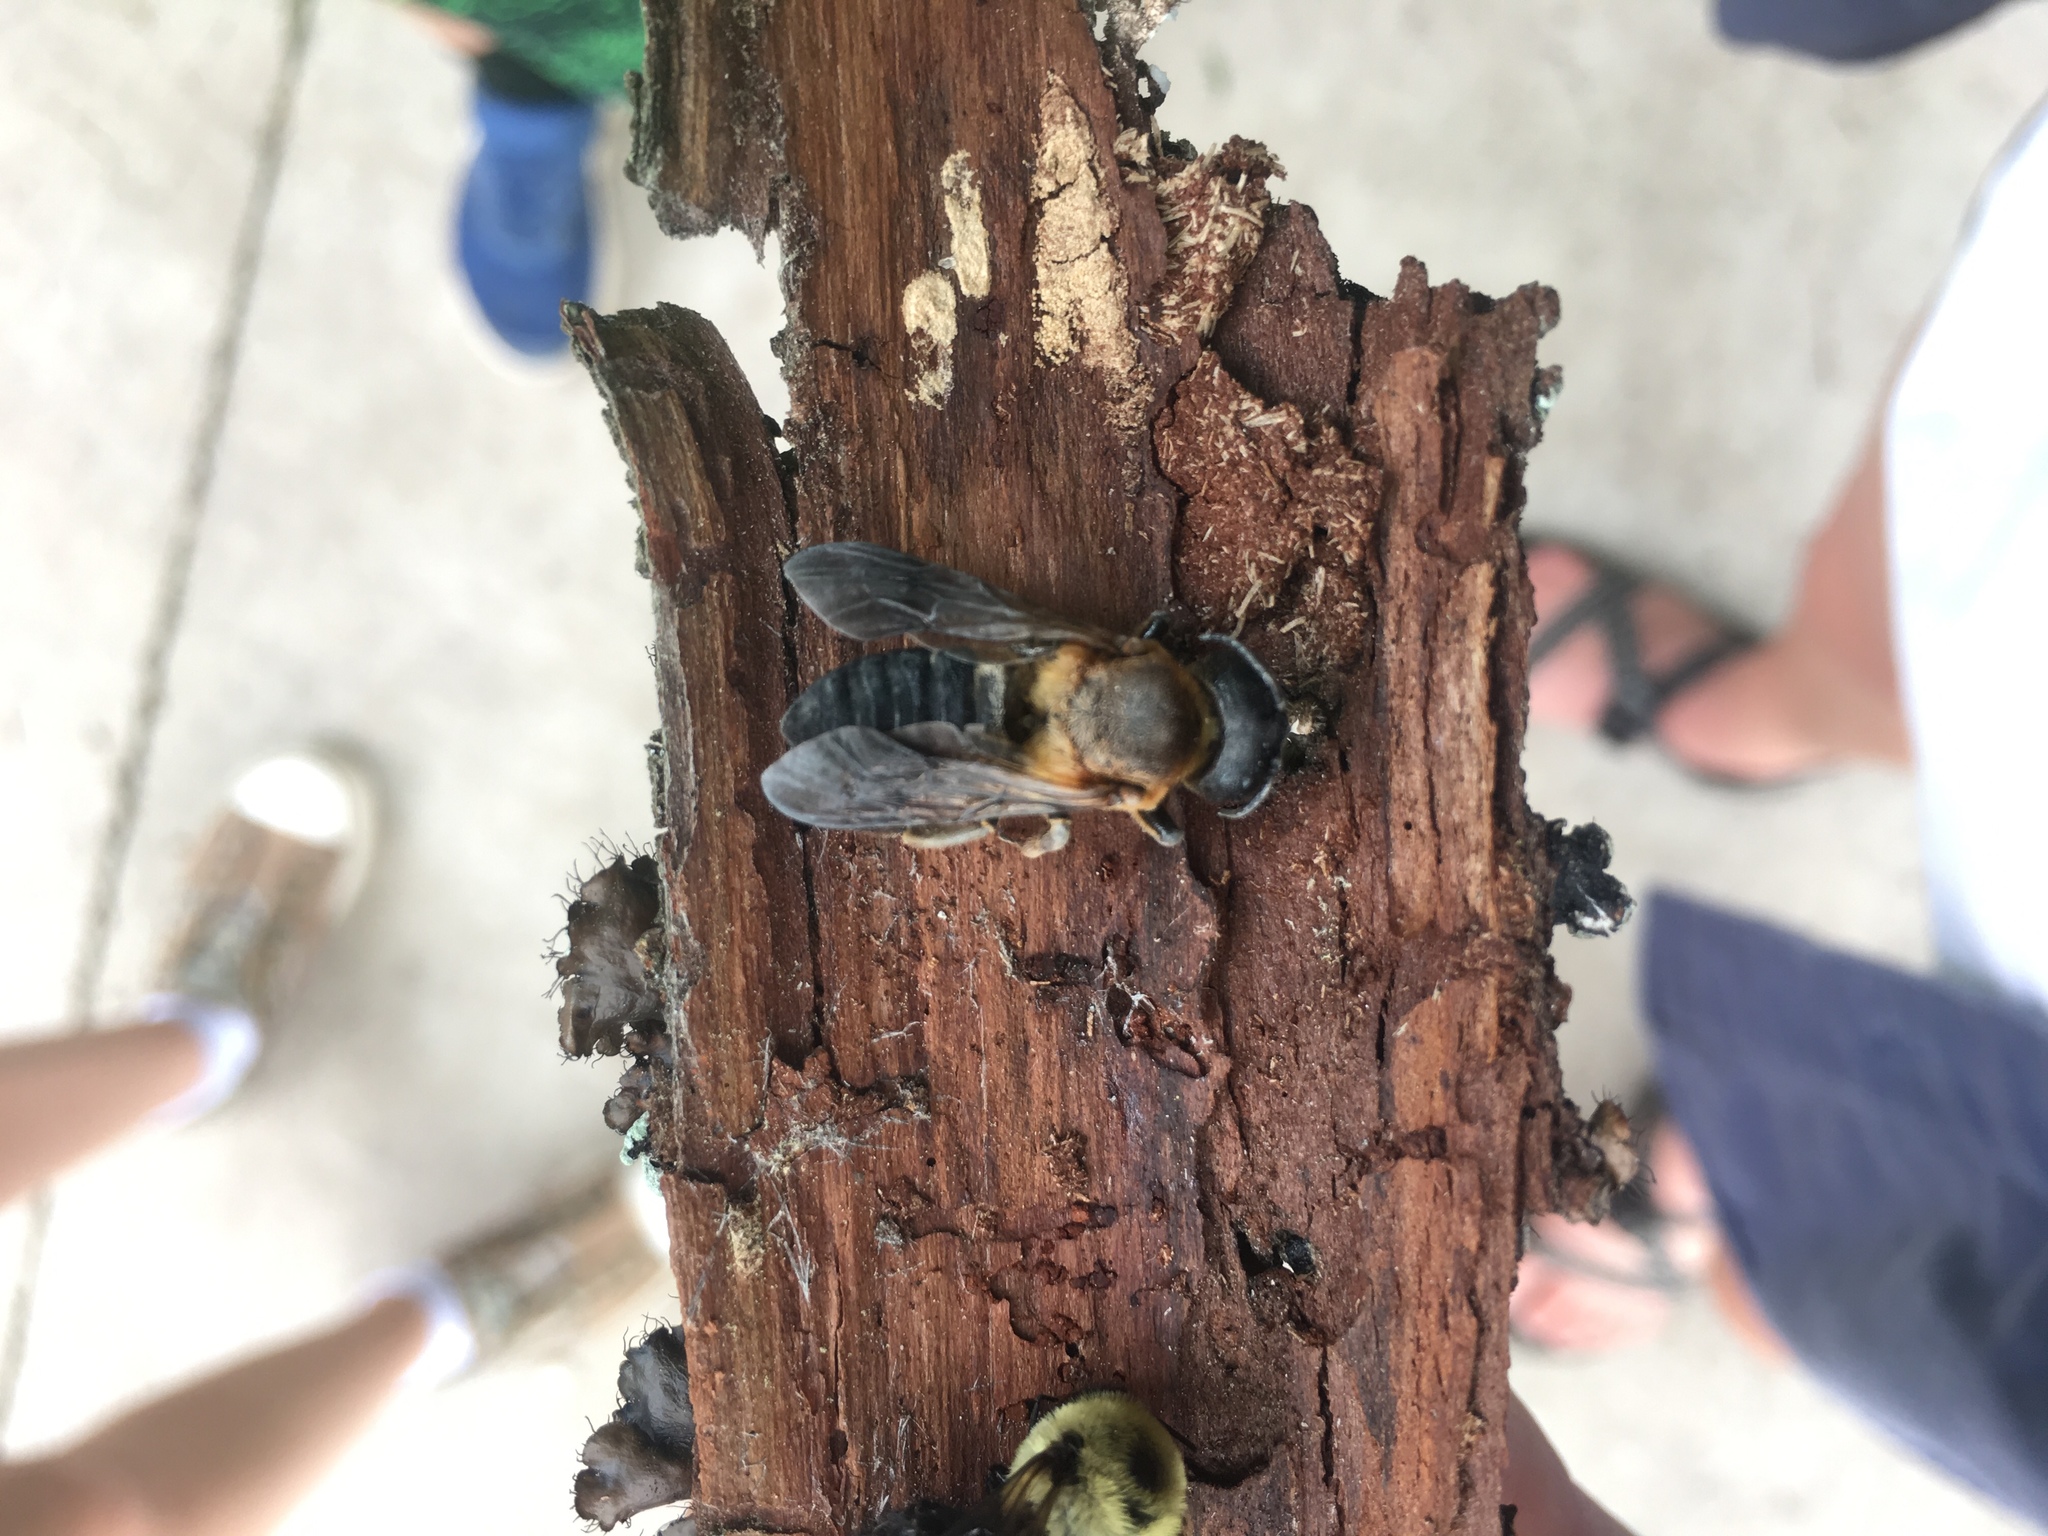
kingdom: Animalia
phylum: Arthropoda
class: Insecta
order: Hymenoptera
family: Megachilidae
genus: Megachile
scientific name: Megachile sculpturalis
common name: Sculptured resin bee
